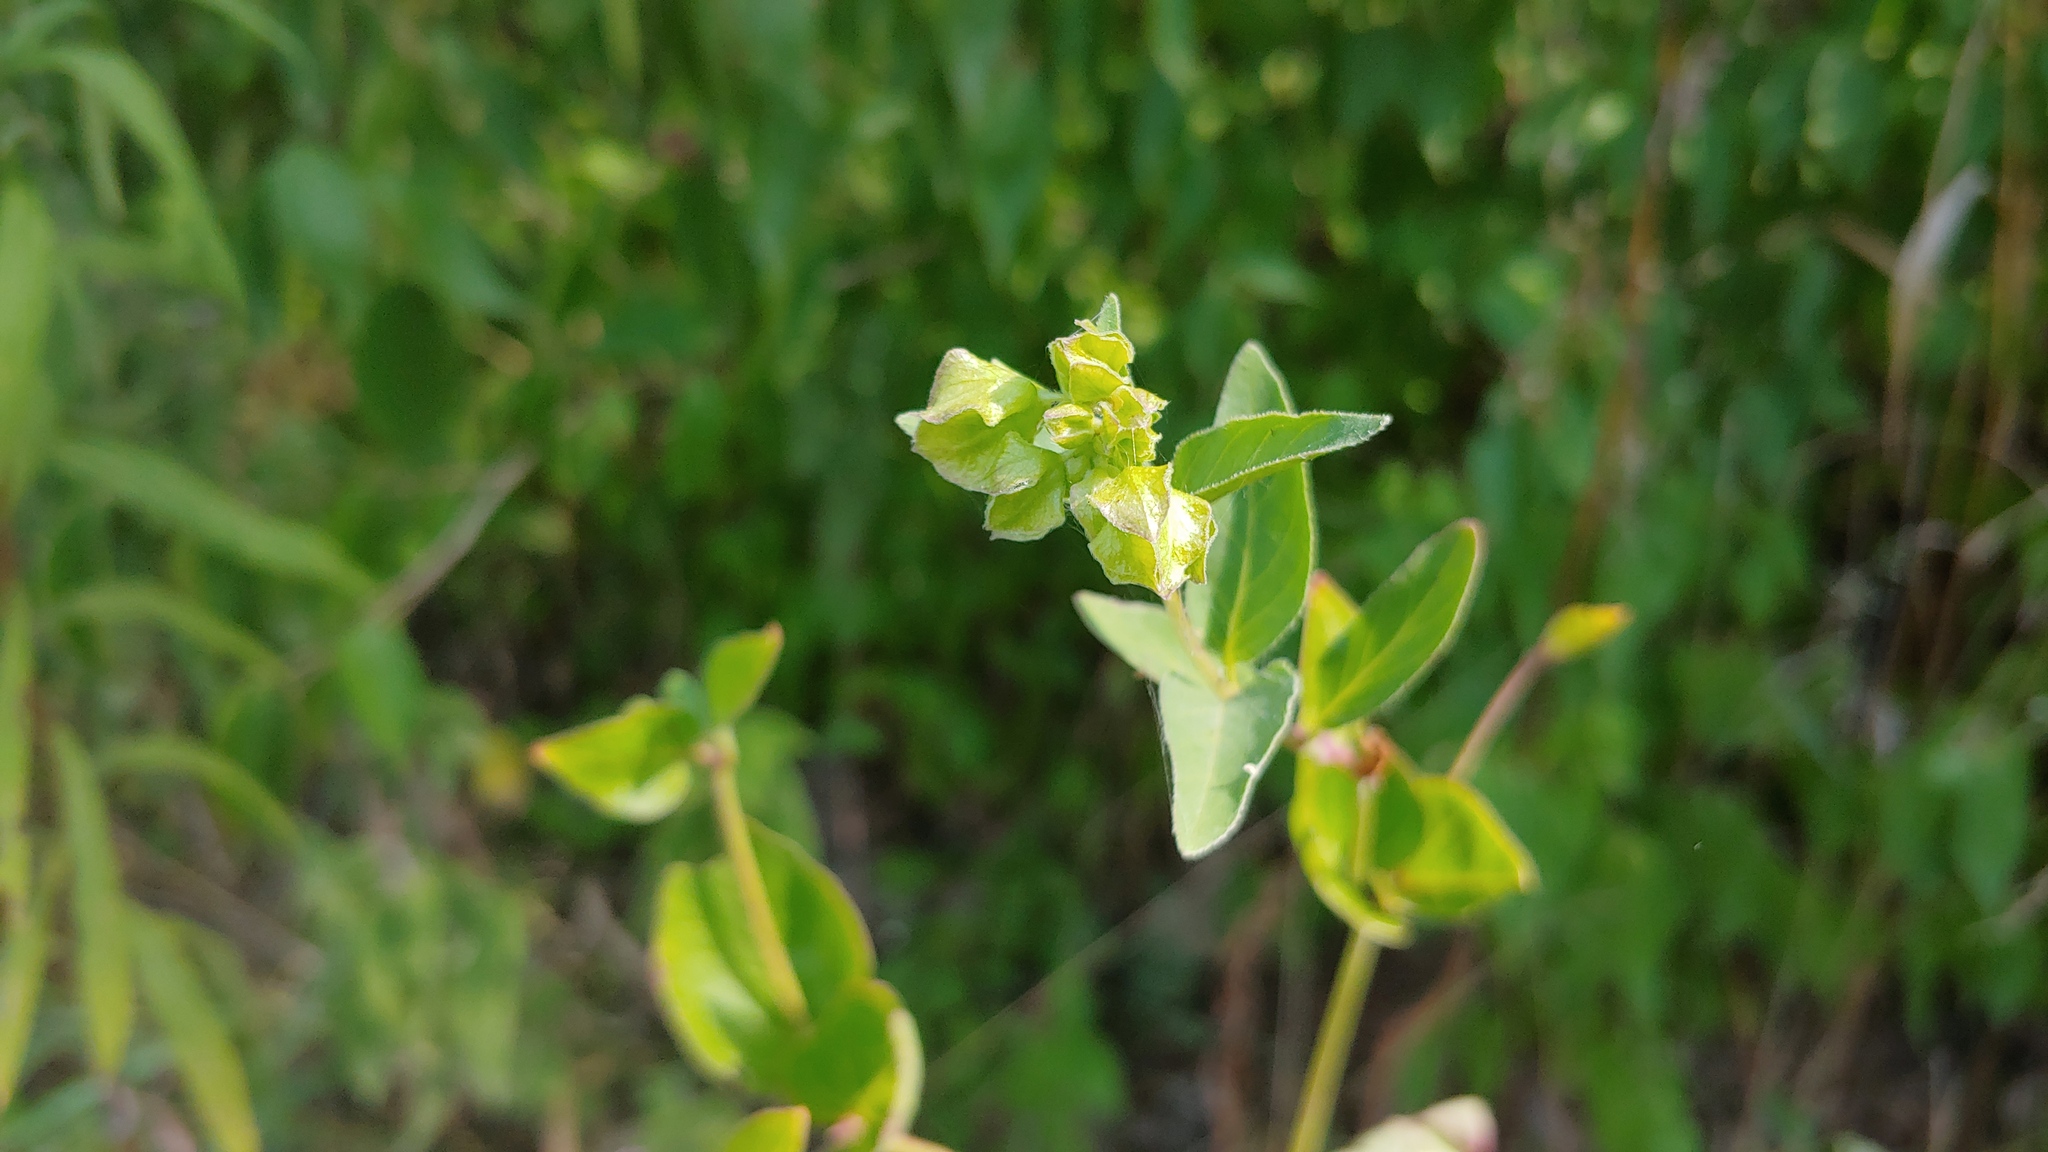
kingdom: Plantae
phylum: Tracheophyta
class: Magnoliopsida
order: Caryophyllales
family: Nyctaginaceae
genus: Mirabilis
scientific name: Mirabilis nyctaginea
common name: Umbrella wort
